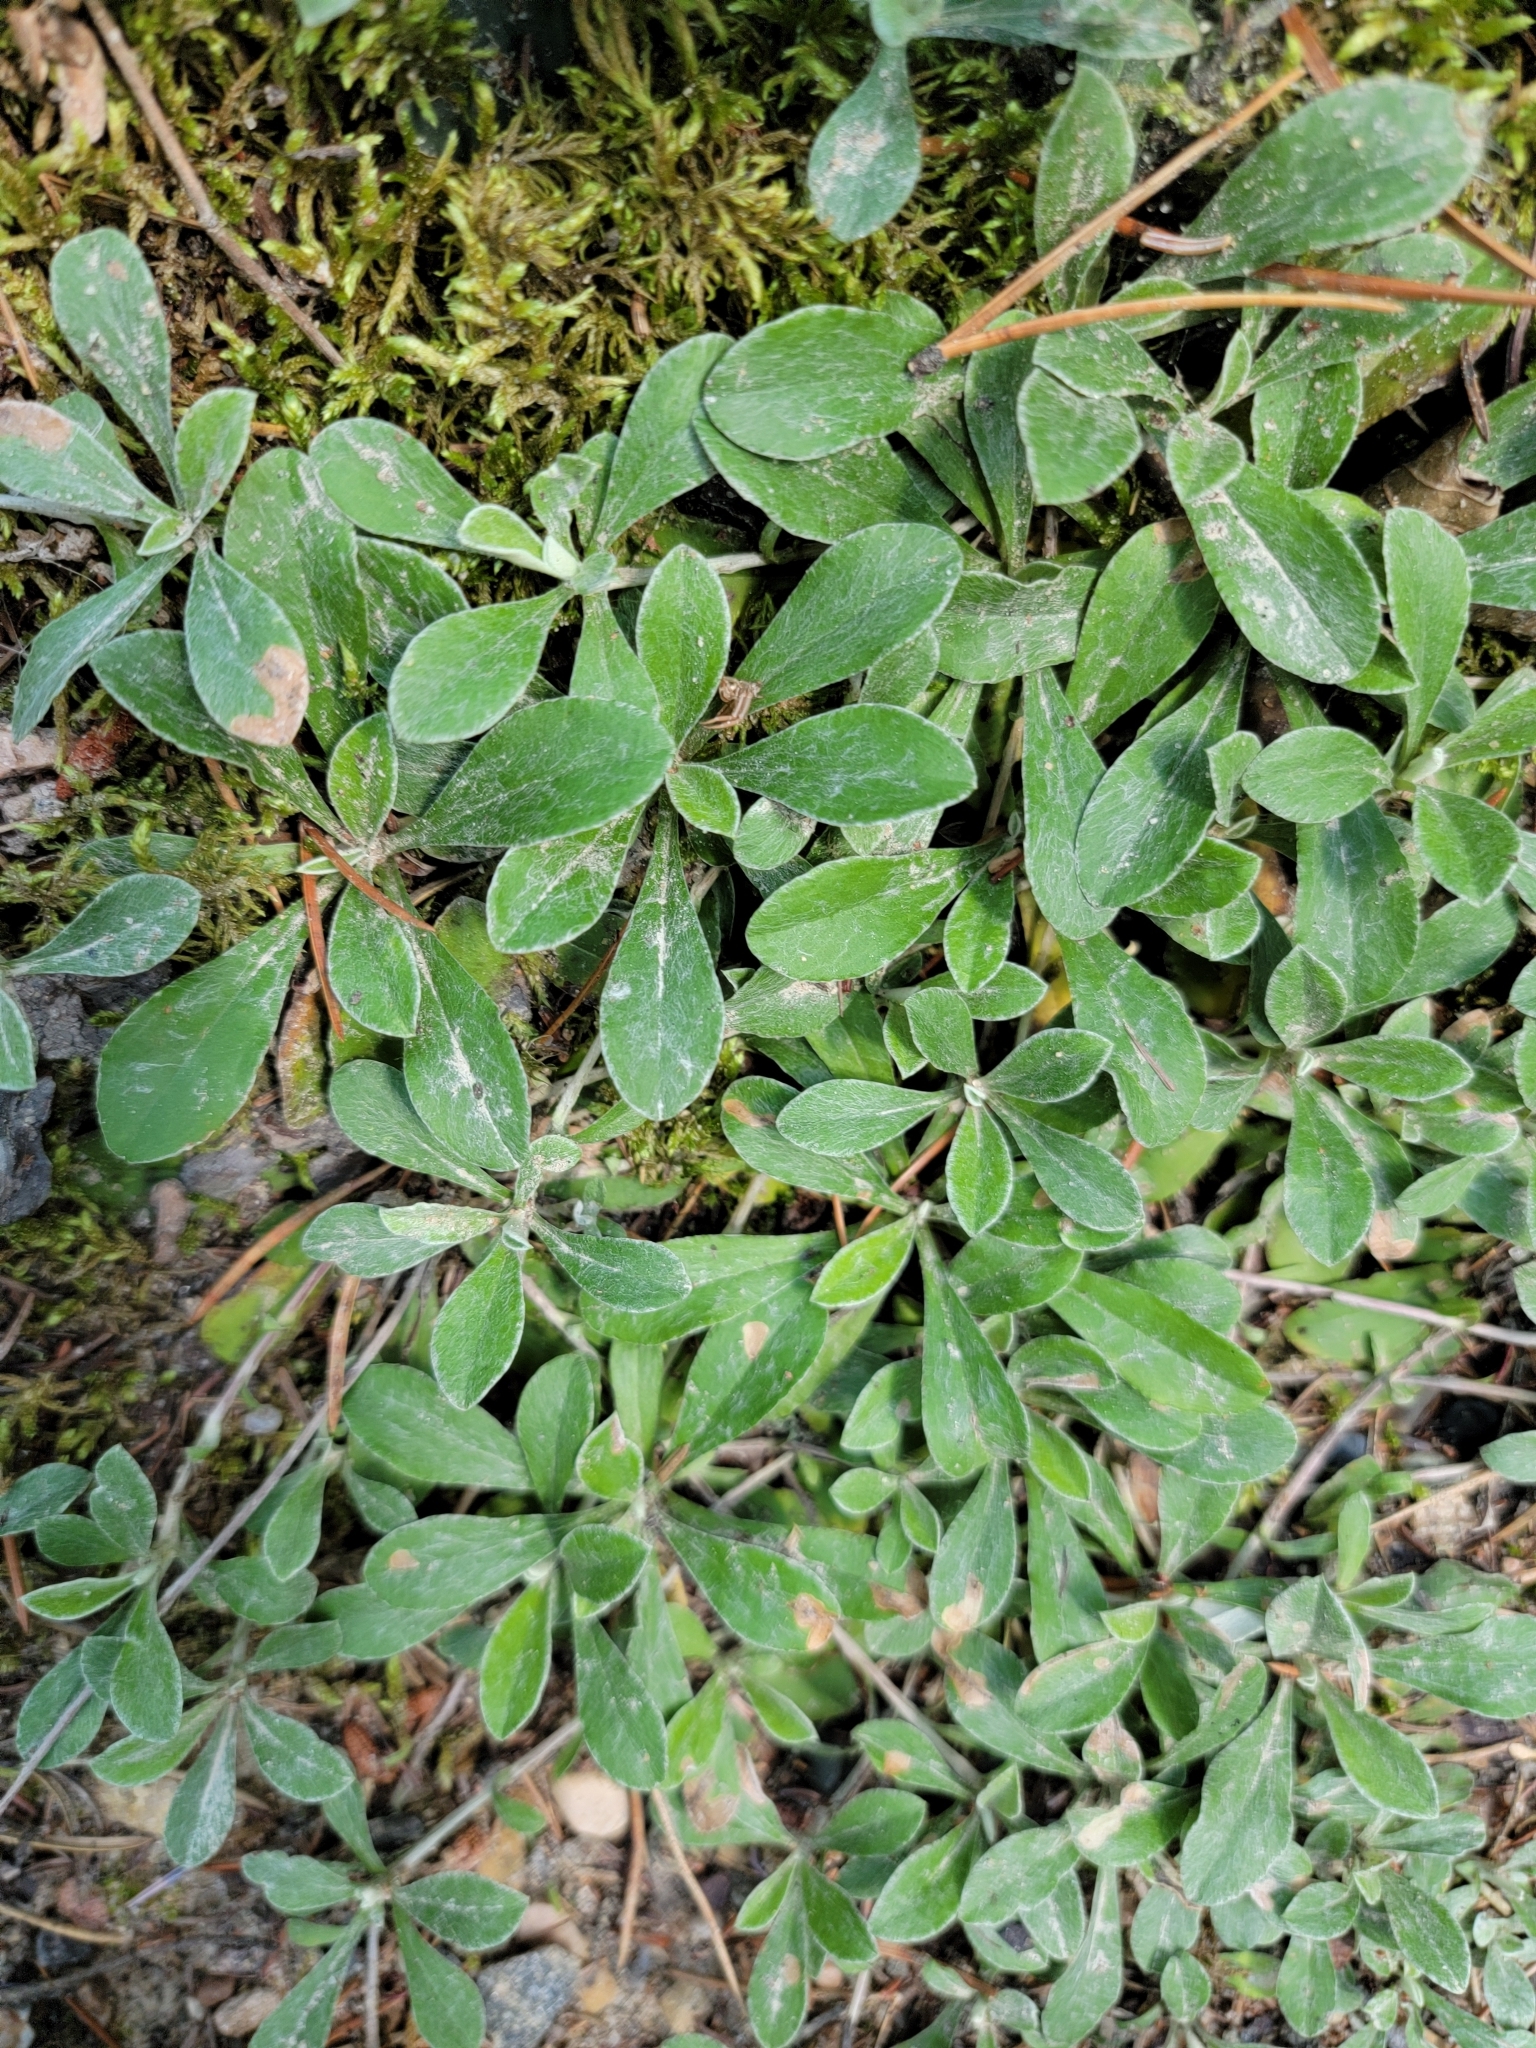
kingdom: Plantae
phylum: Tracheophyta
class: Magnoliopsida
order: Asterales
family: Asteraceae
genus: Antennaria
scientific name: Antennaria neglecta
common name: Field pussytoes
